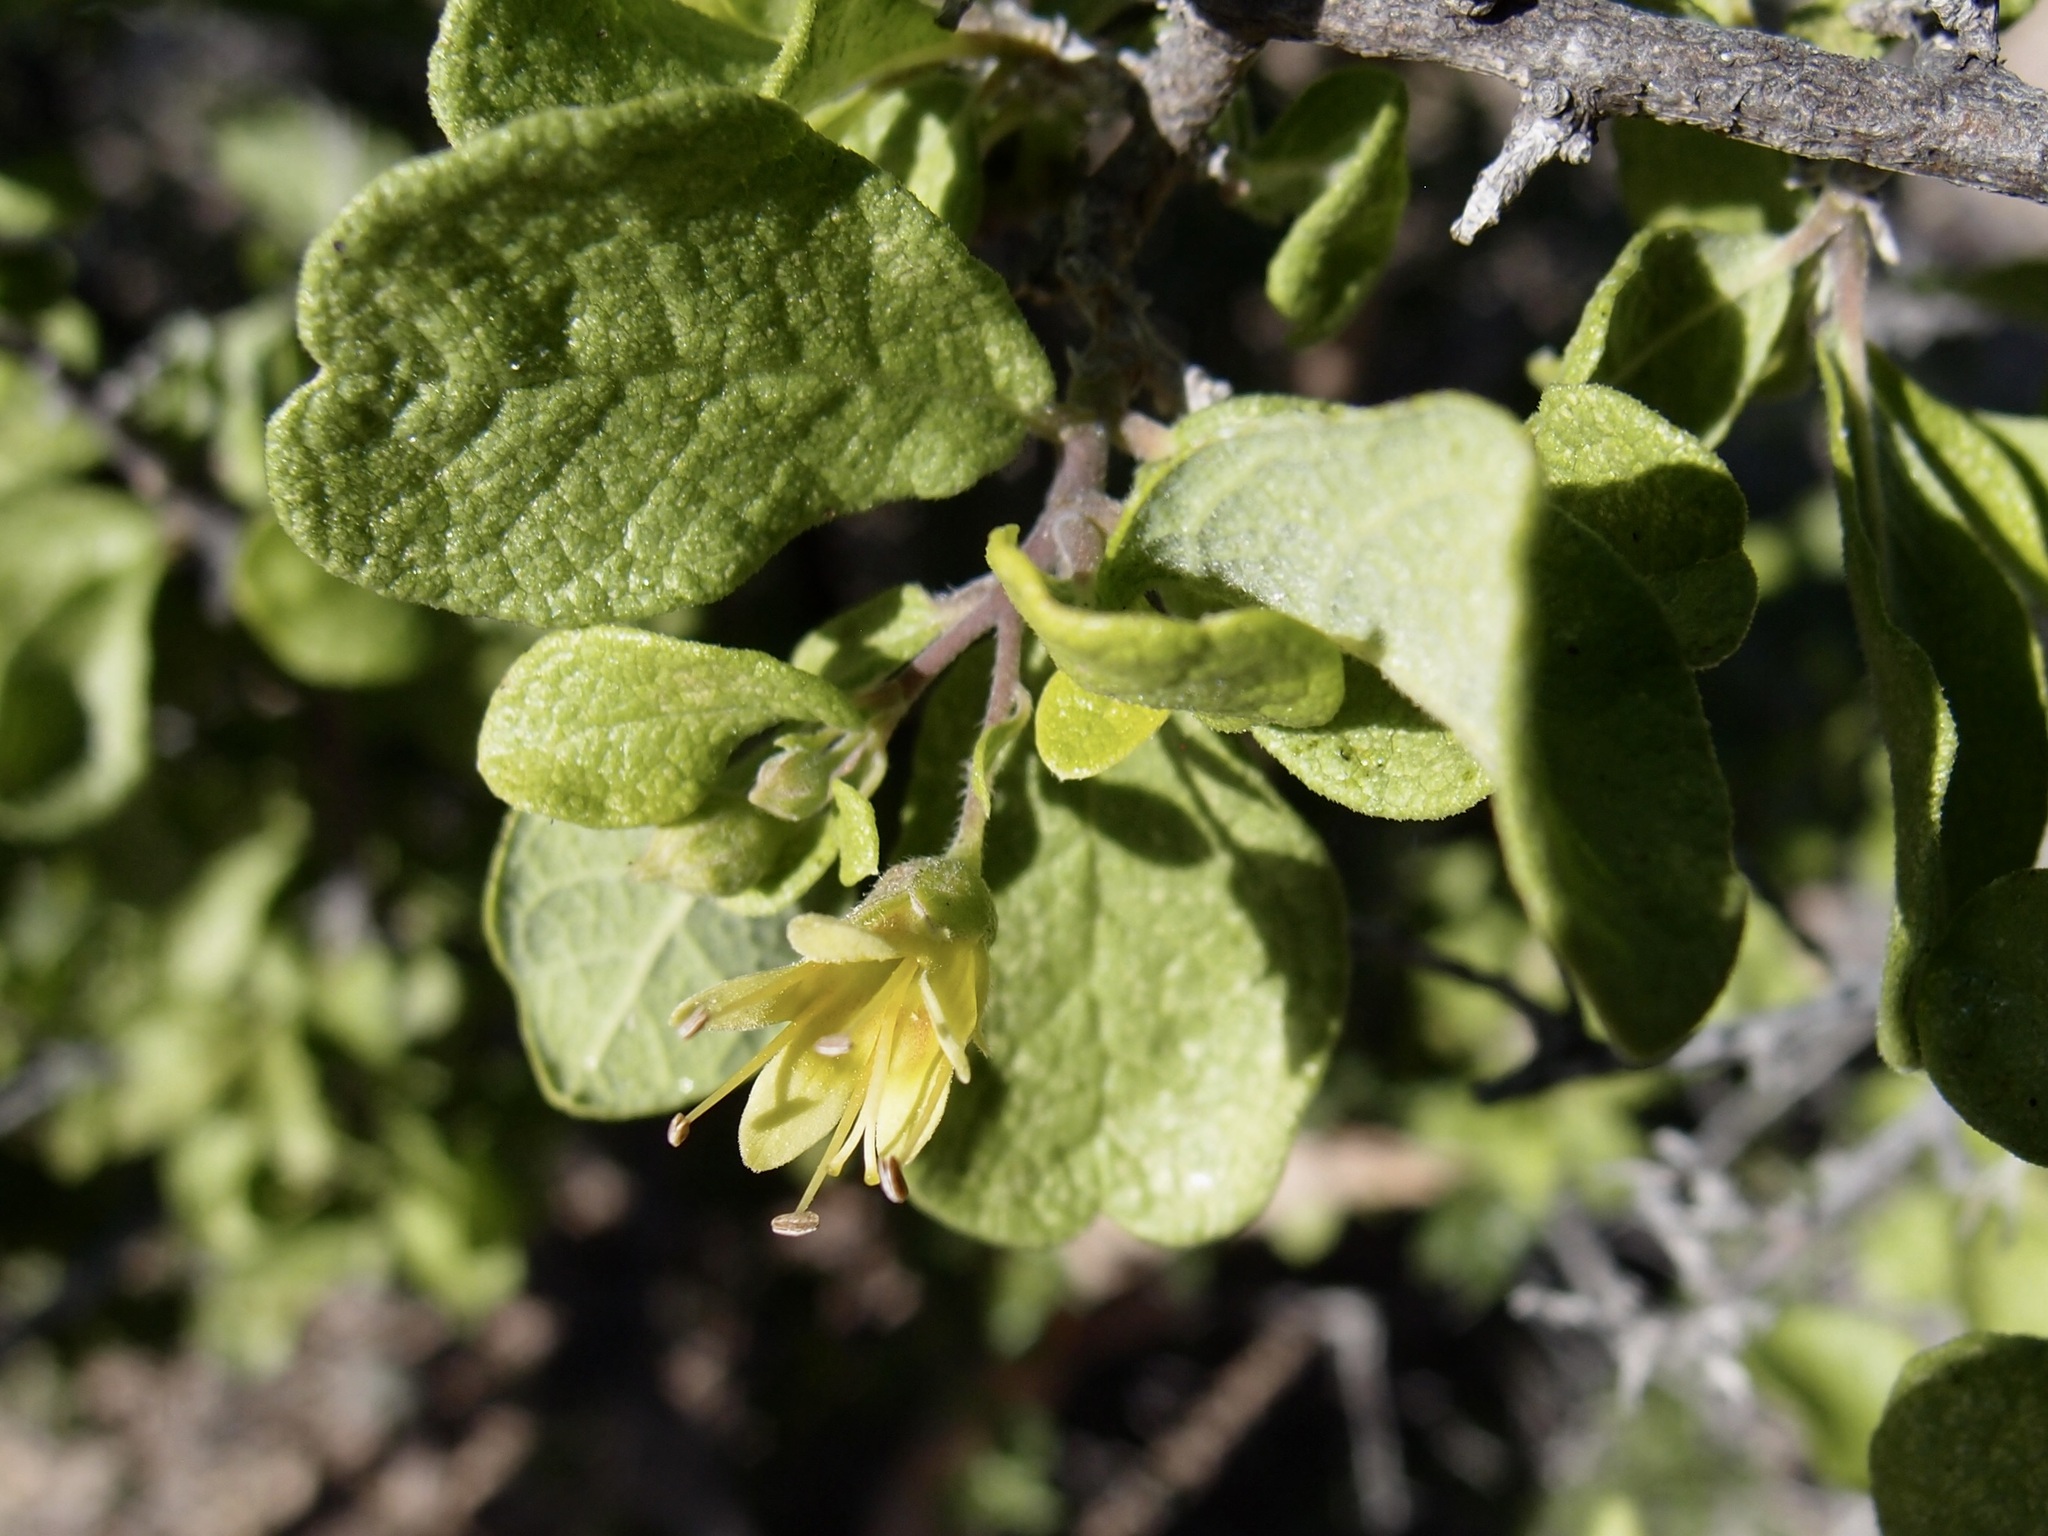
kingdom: Plantae
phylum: Tracheophyta
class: Magnoliopsida
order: Boraginales
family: Ehretiaceae
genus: Bourreria
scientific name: Bourreria sonorae
